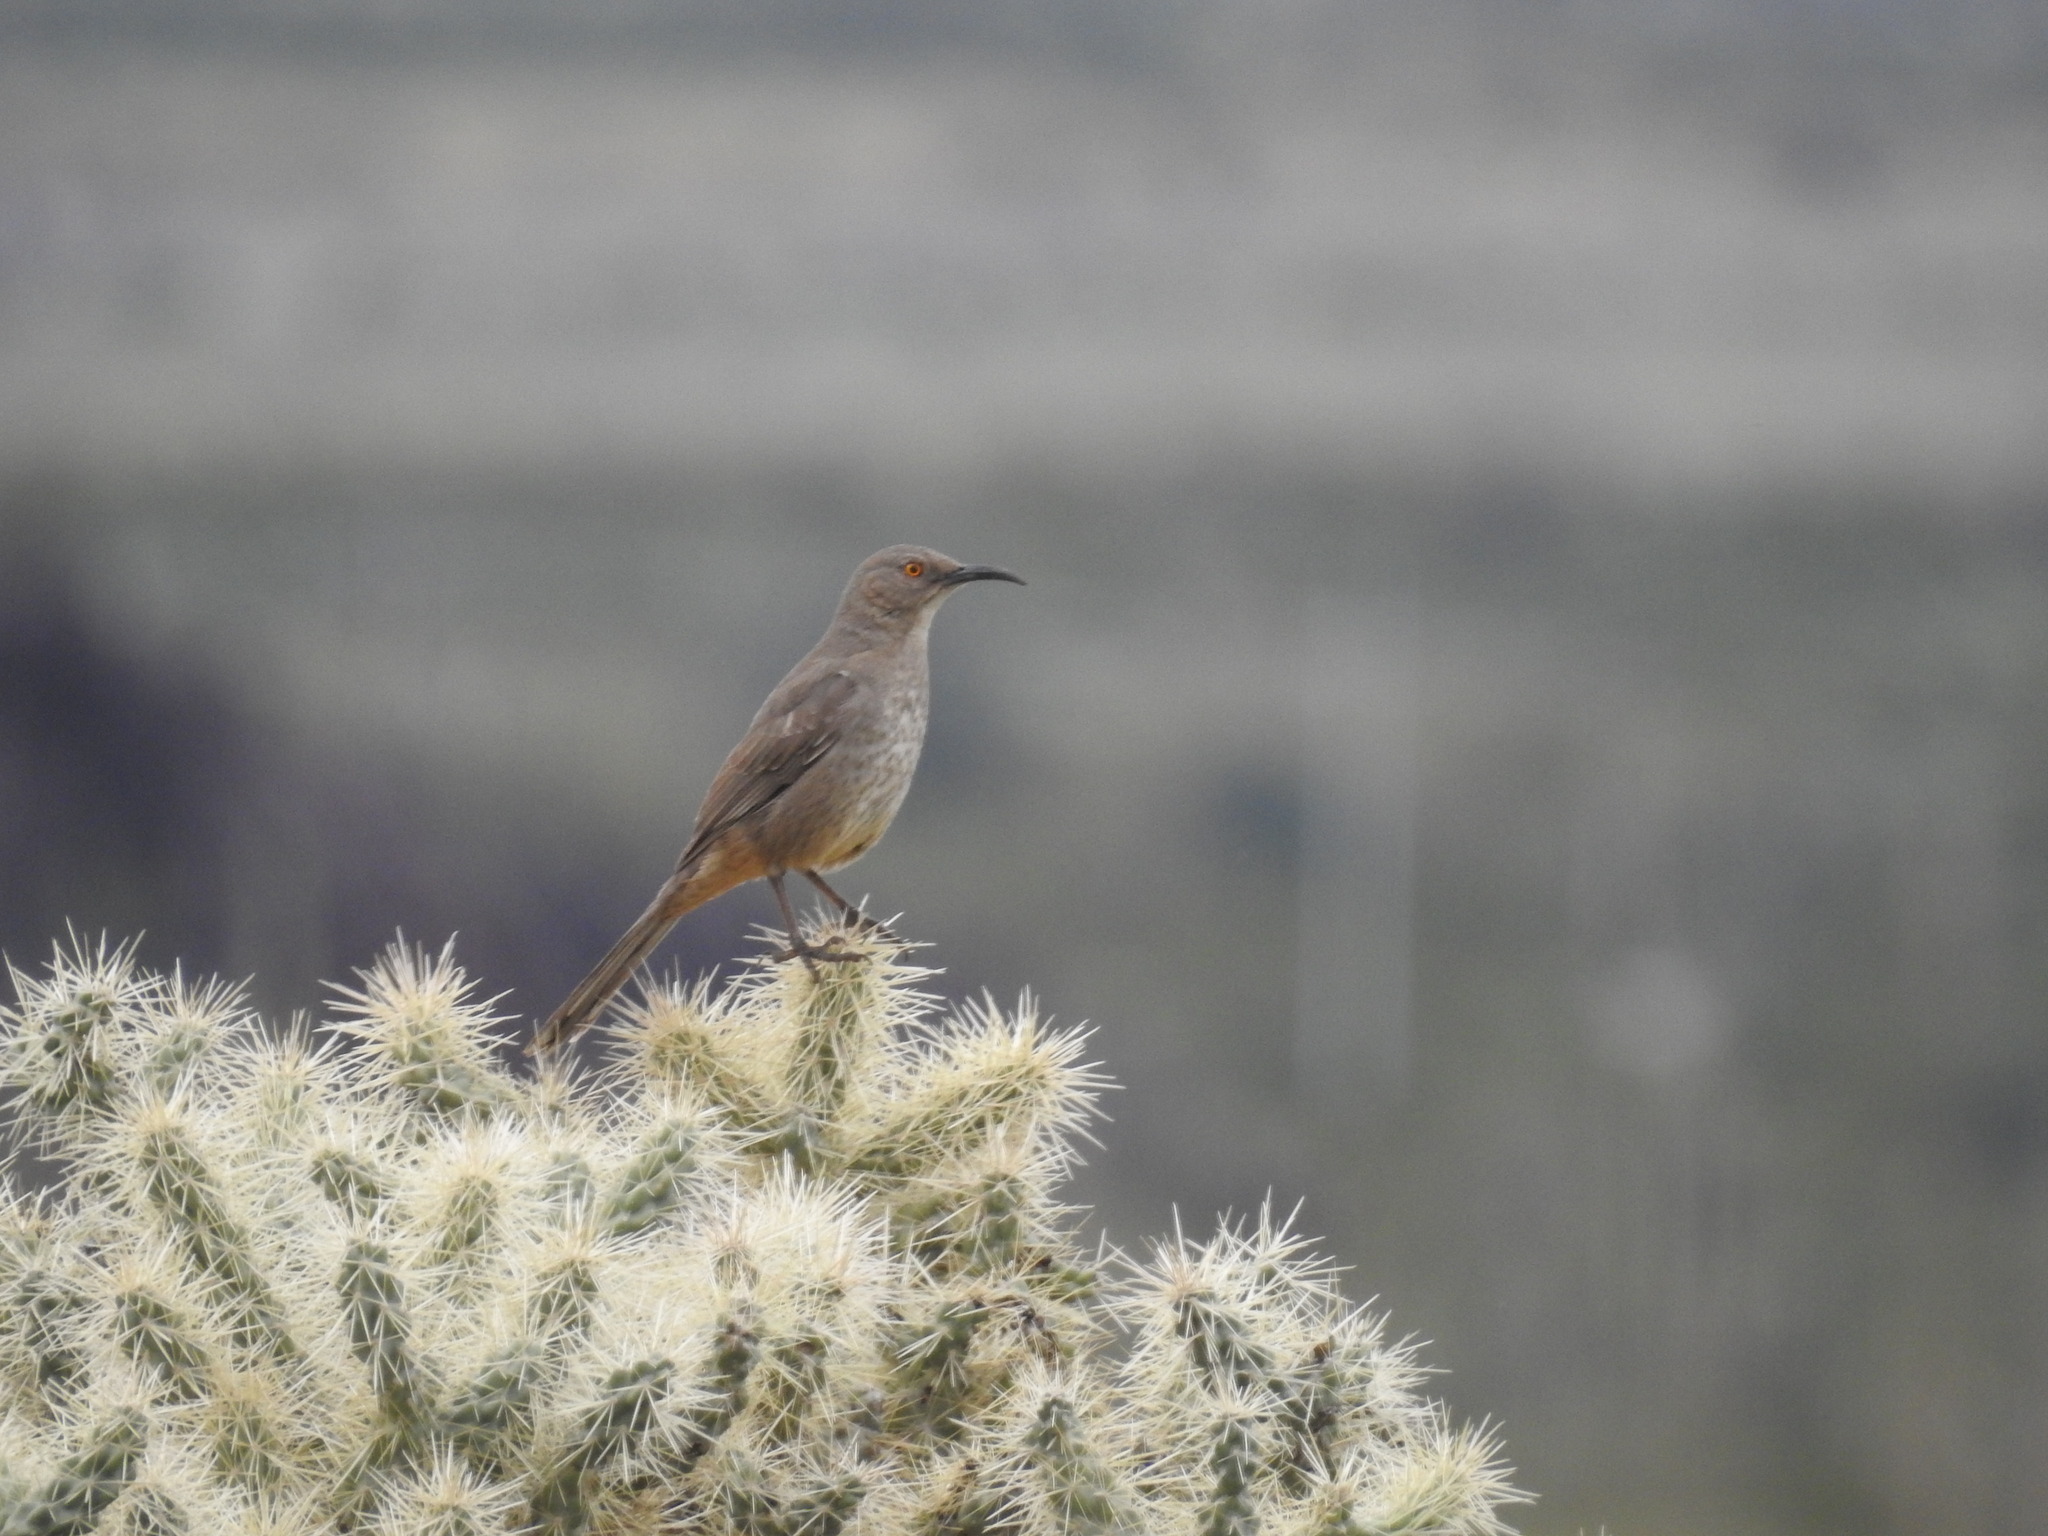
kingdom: Animalia
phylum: Chordata
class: Aves
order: Passeriformes
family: Mimidae
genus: Toxostoma
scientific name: Toxostoma curvirostre
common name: Curve-billed thrasher
